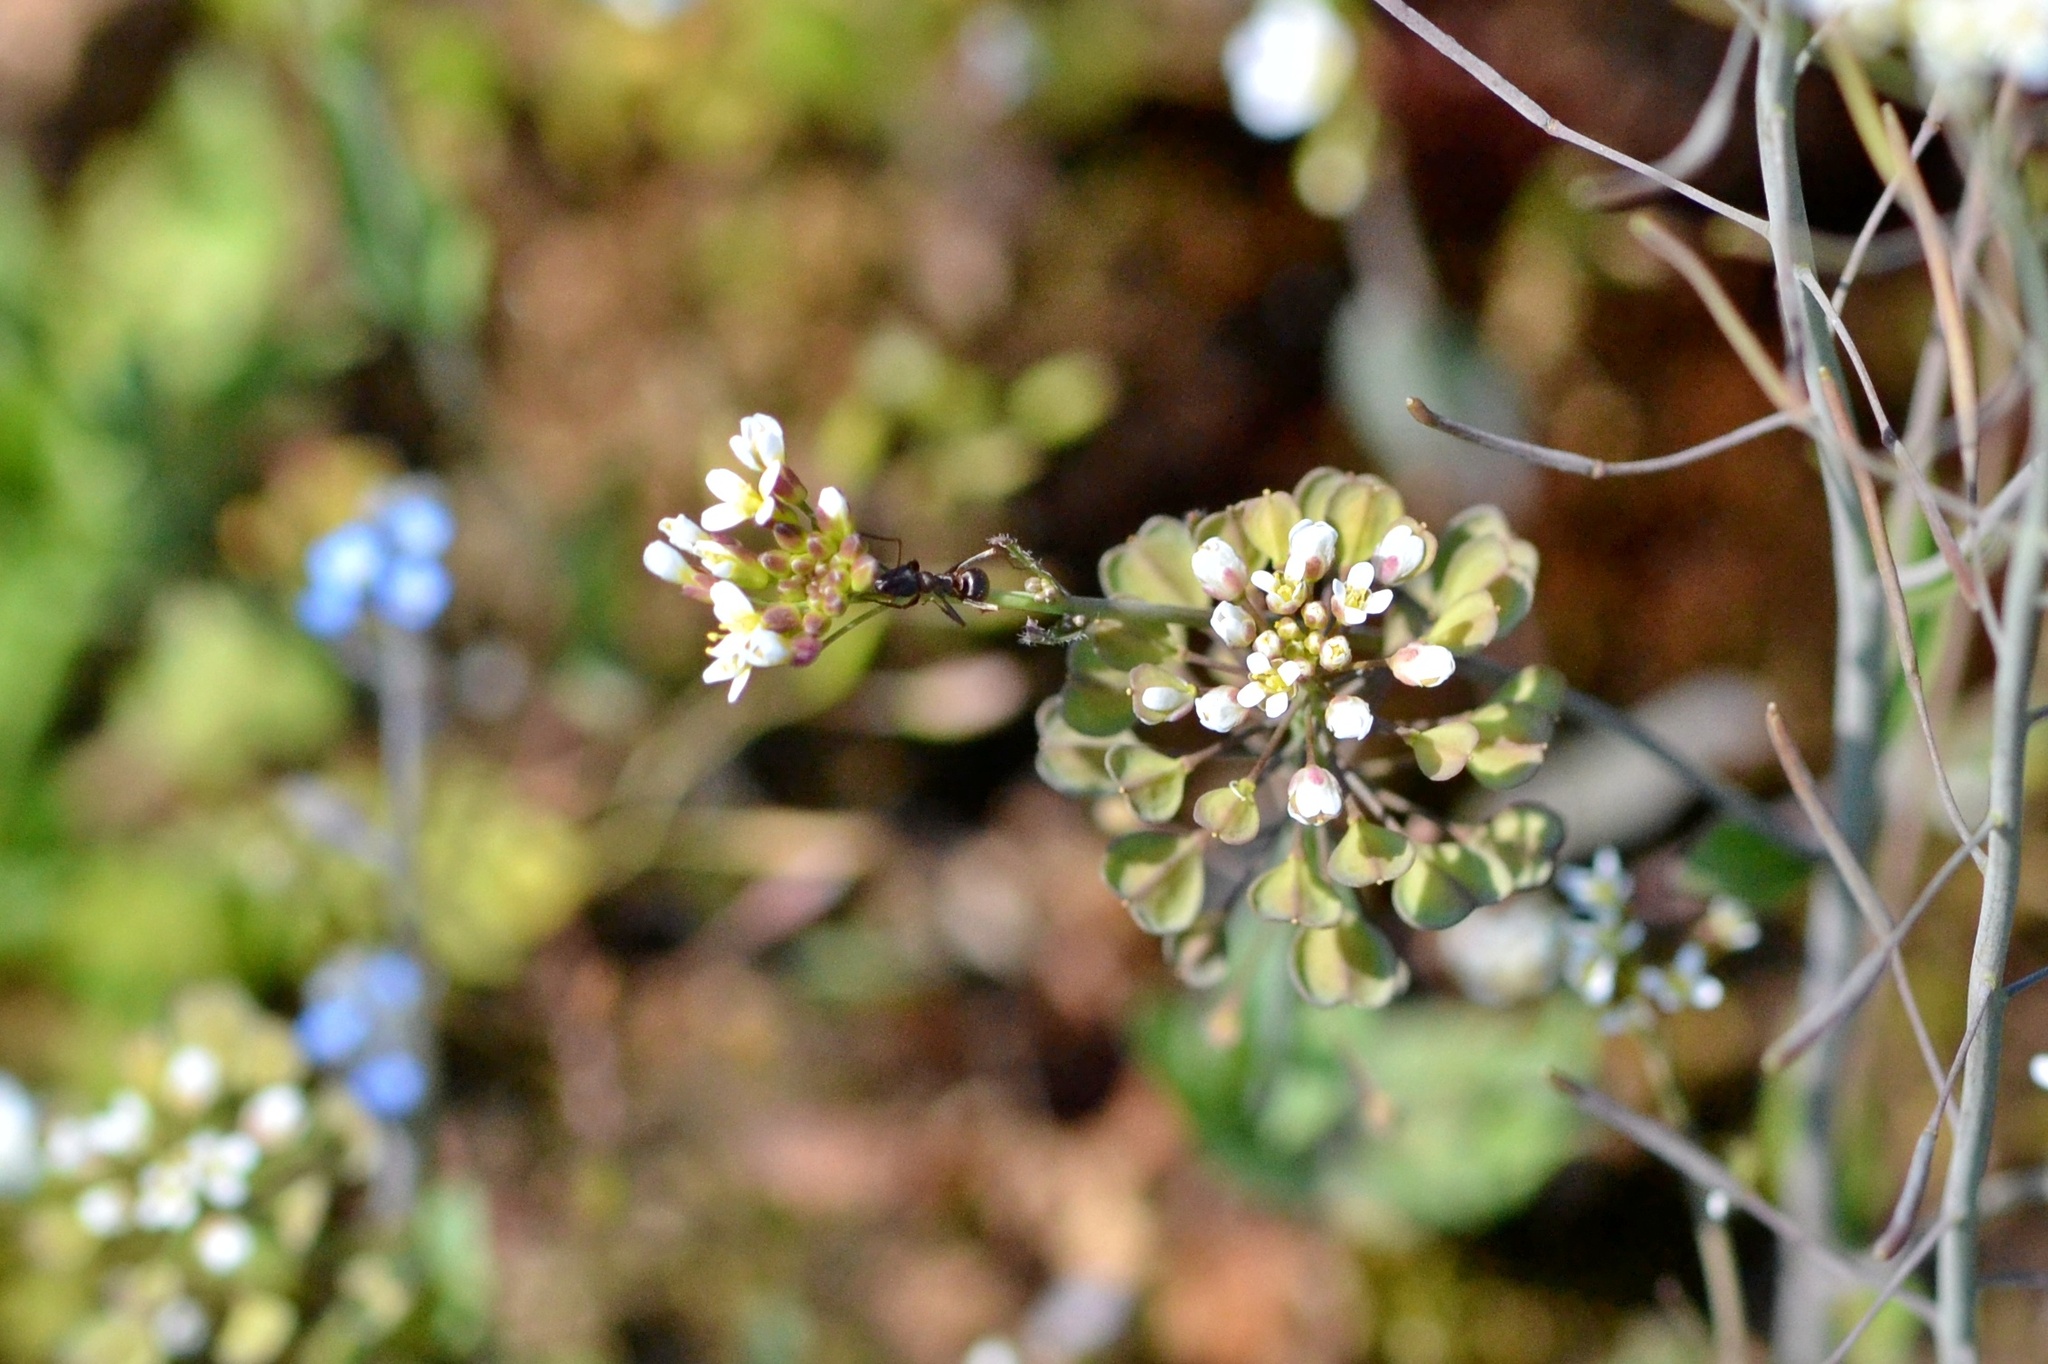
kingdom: Plantae
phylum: Tracheophyta
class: Magnoliopsida
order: Brassicales
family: Brassicaceae
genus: Noccaea
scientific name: Noccaea perfoliata
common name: Perfoliate pennycress
